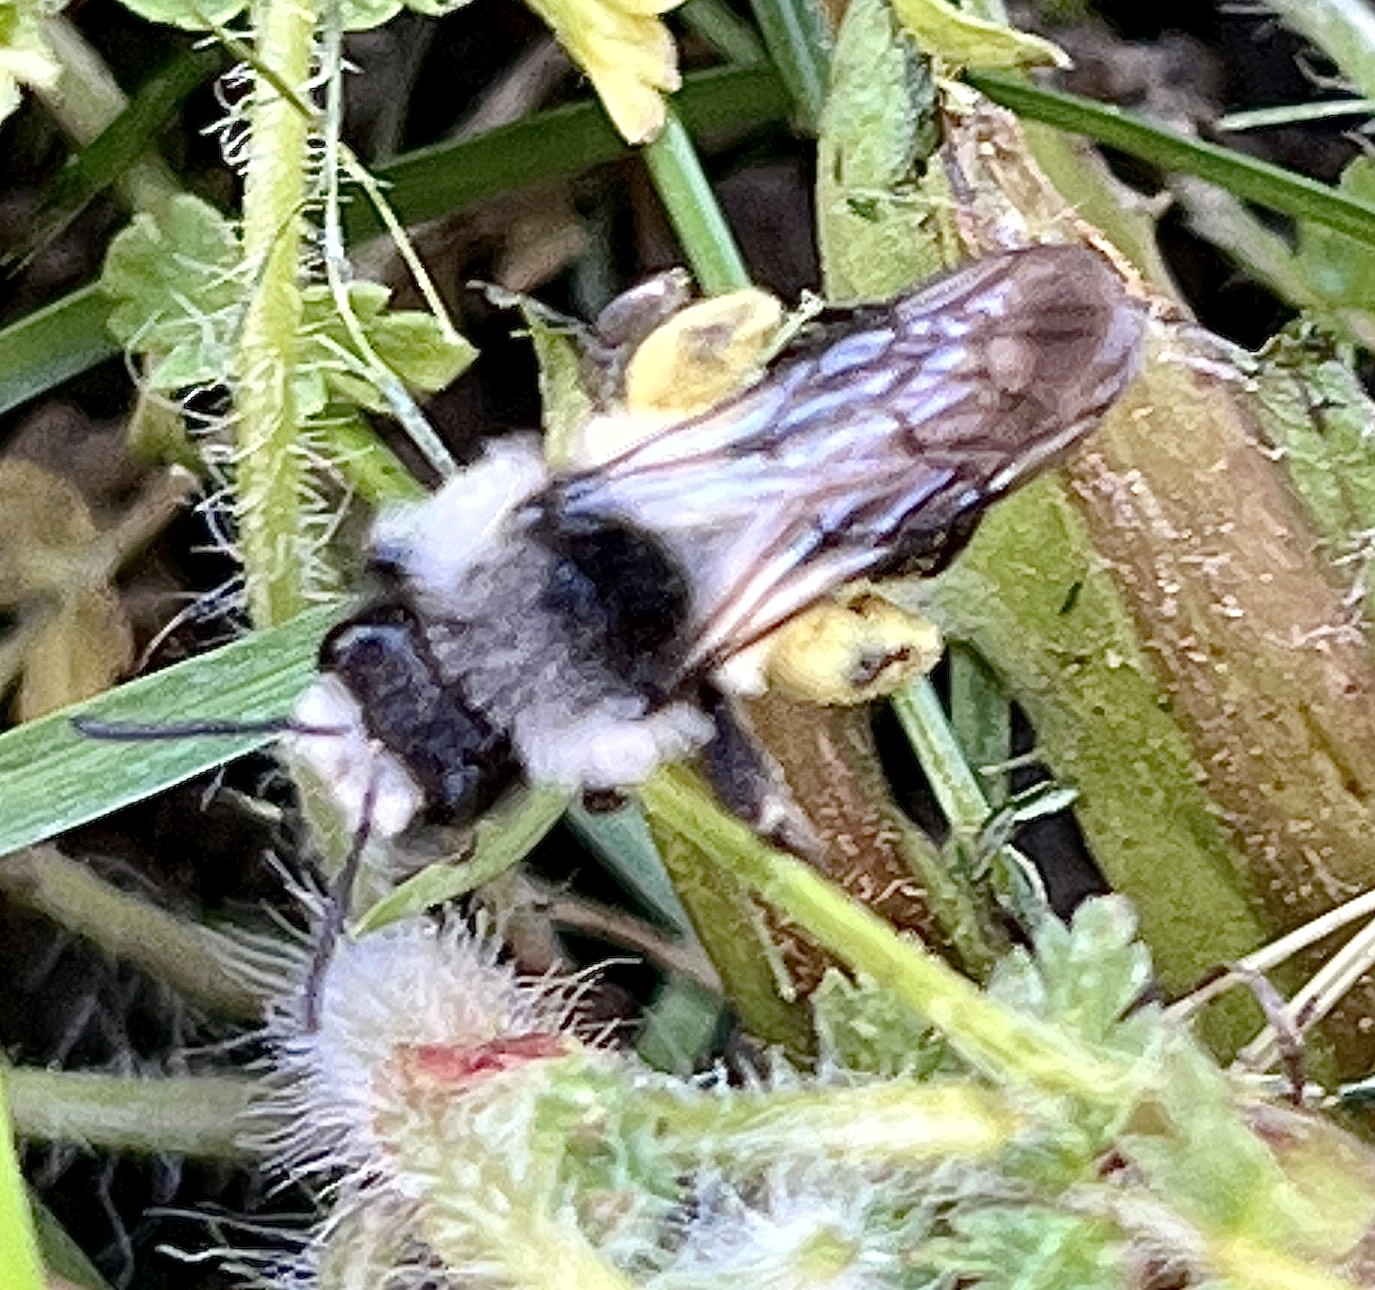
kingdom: Animalia
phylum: Arthropoda
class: Insecta
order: Hymenoptera
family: Andrenidae
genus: Andrena
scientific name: Andrena cineraria
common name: Ashy mining bee
